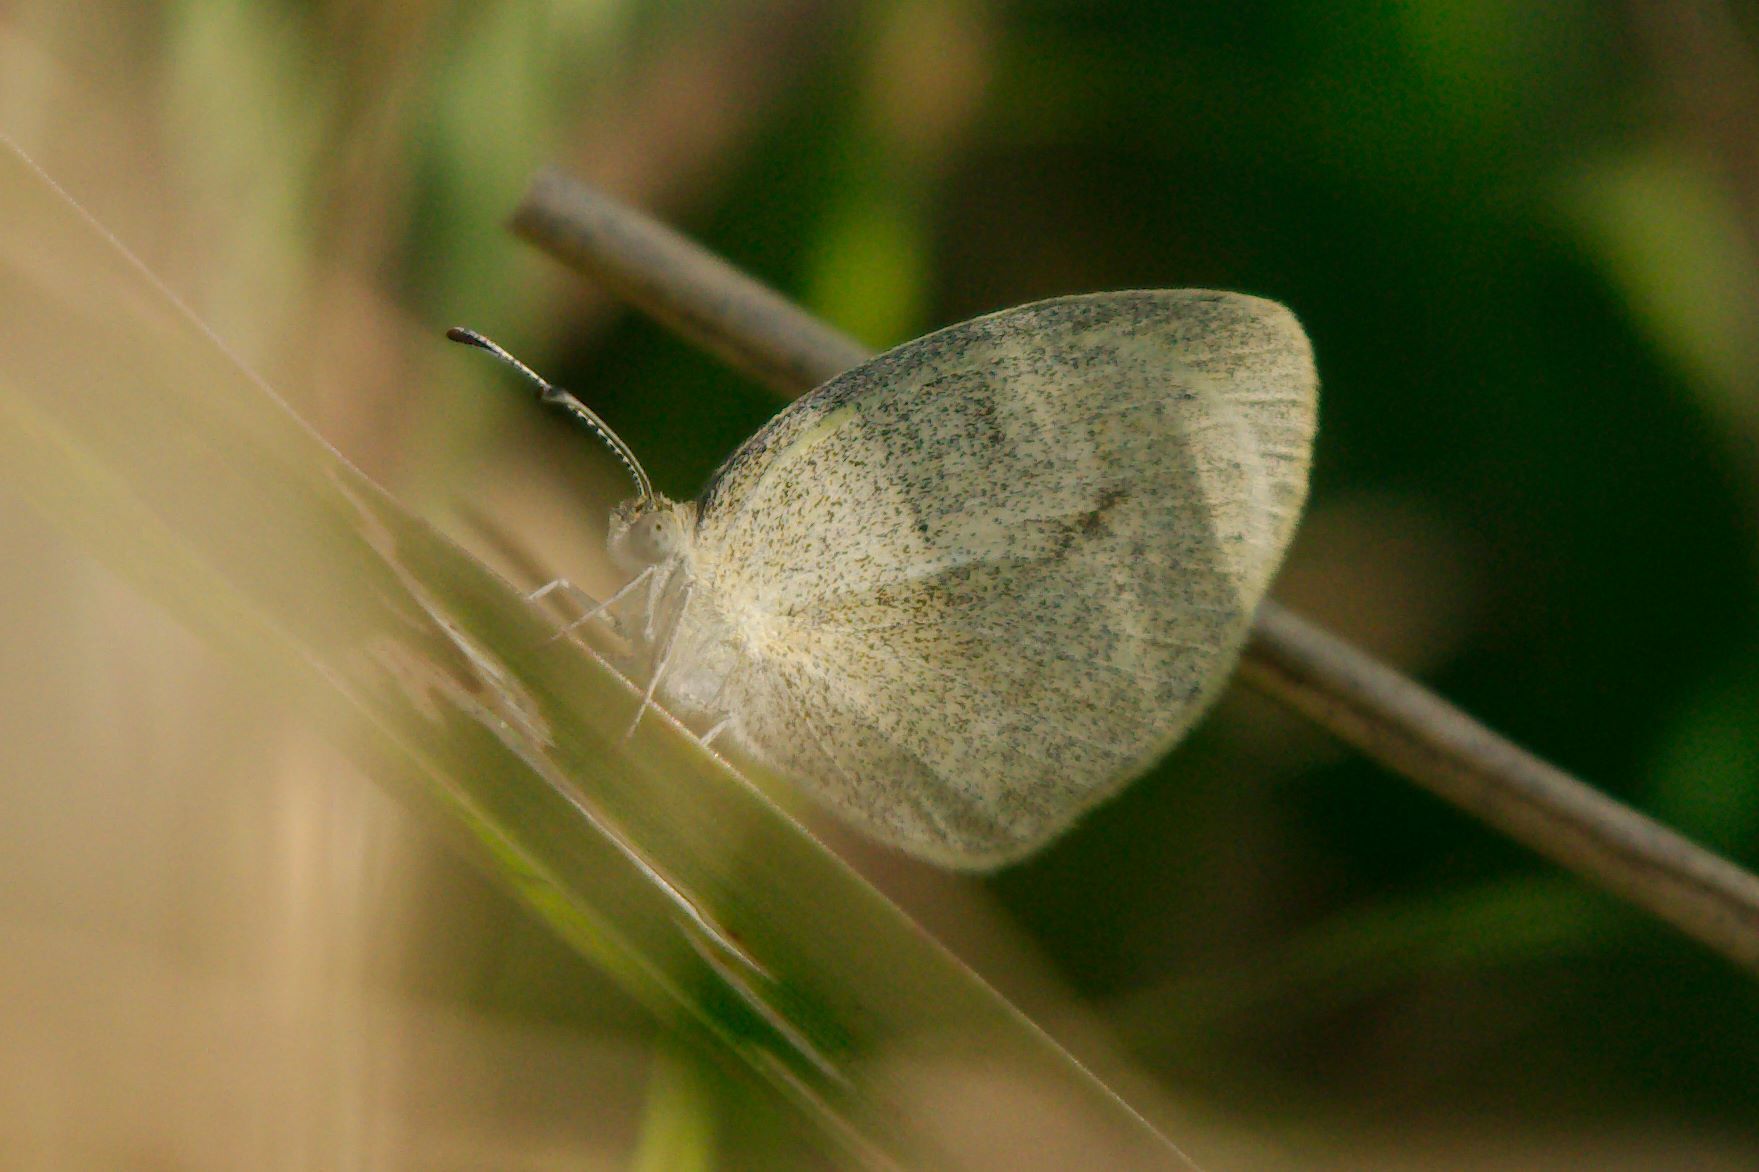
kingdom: Animalia
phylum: Arthropoda
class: Insecta
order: Lepidoptera
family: Pieridae
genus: Eurema
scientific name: Eurema daira
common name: Barred sulphur
